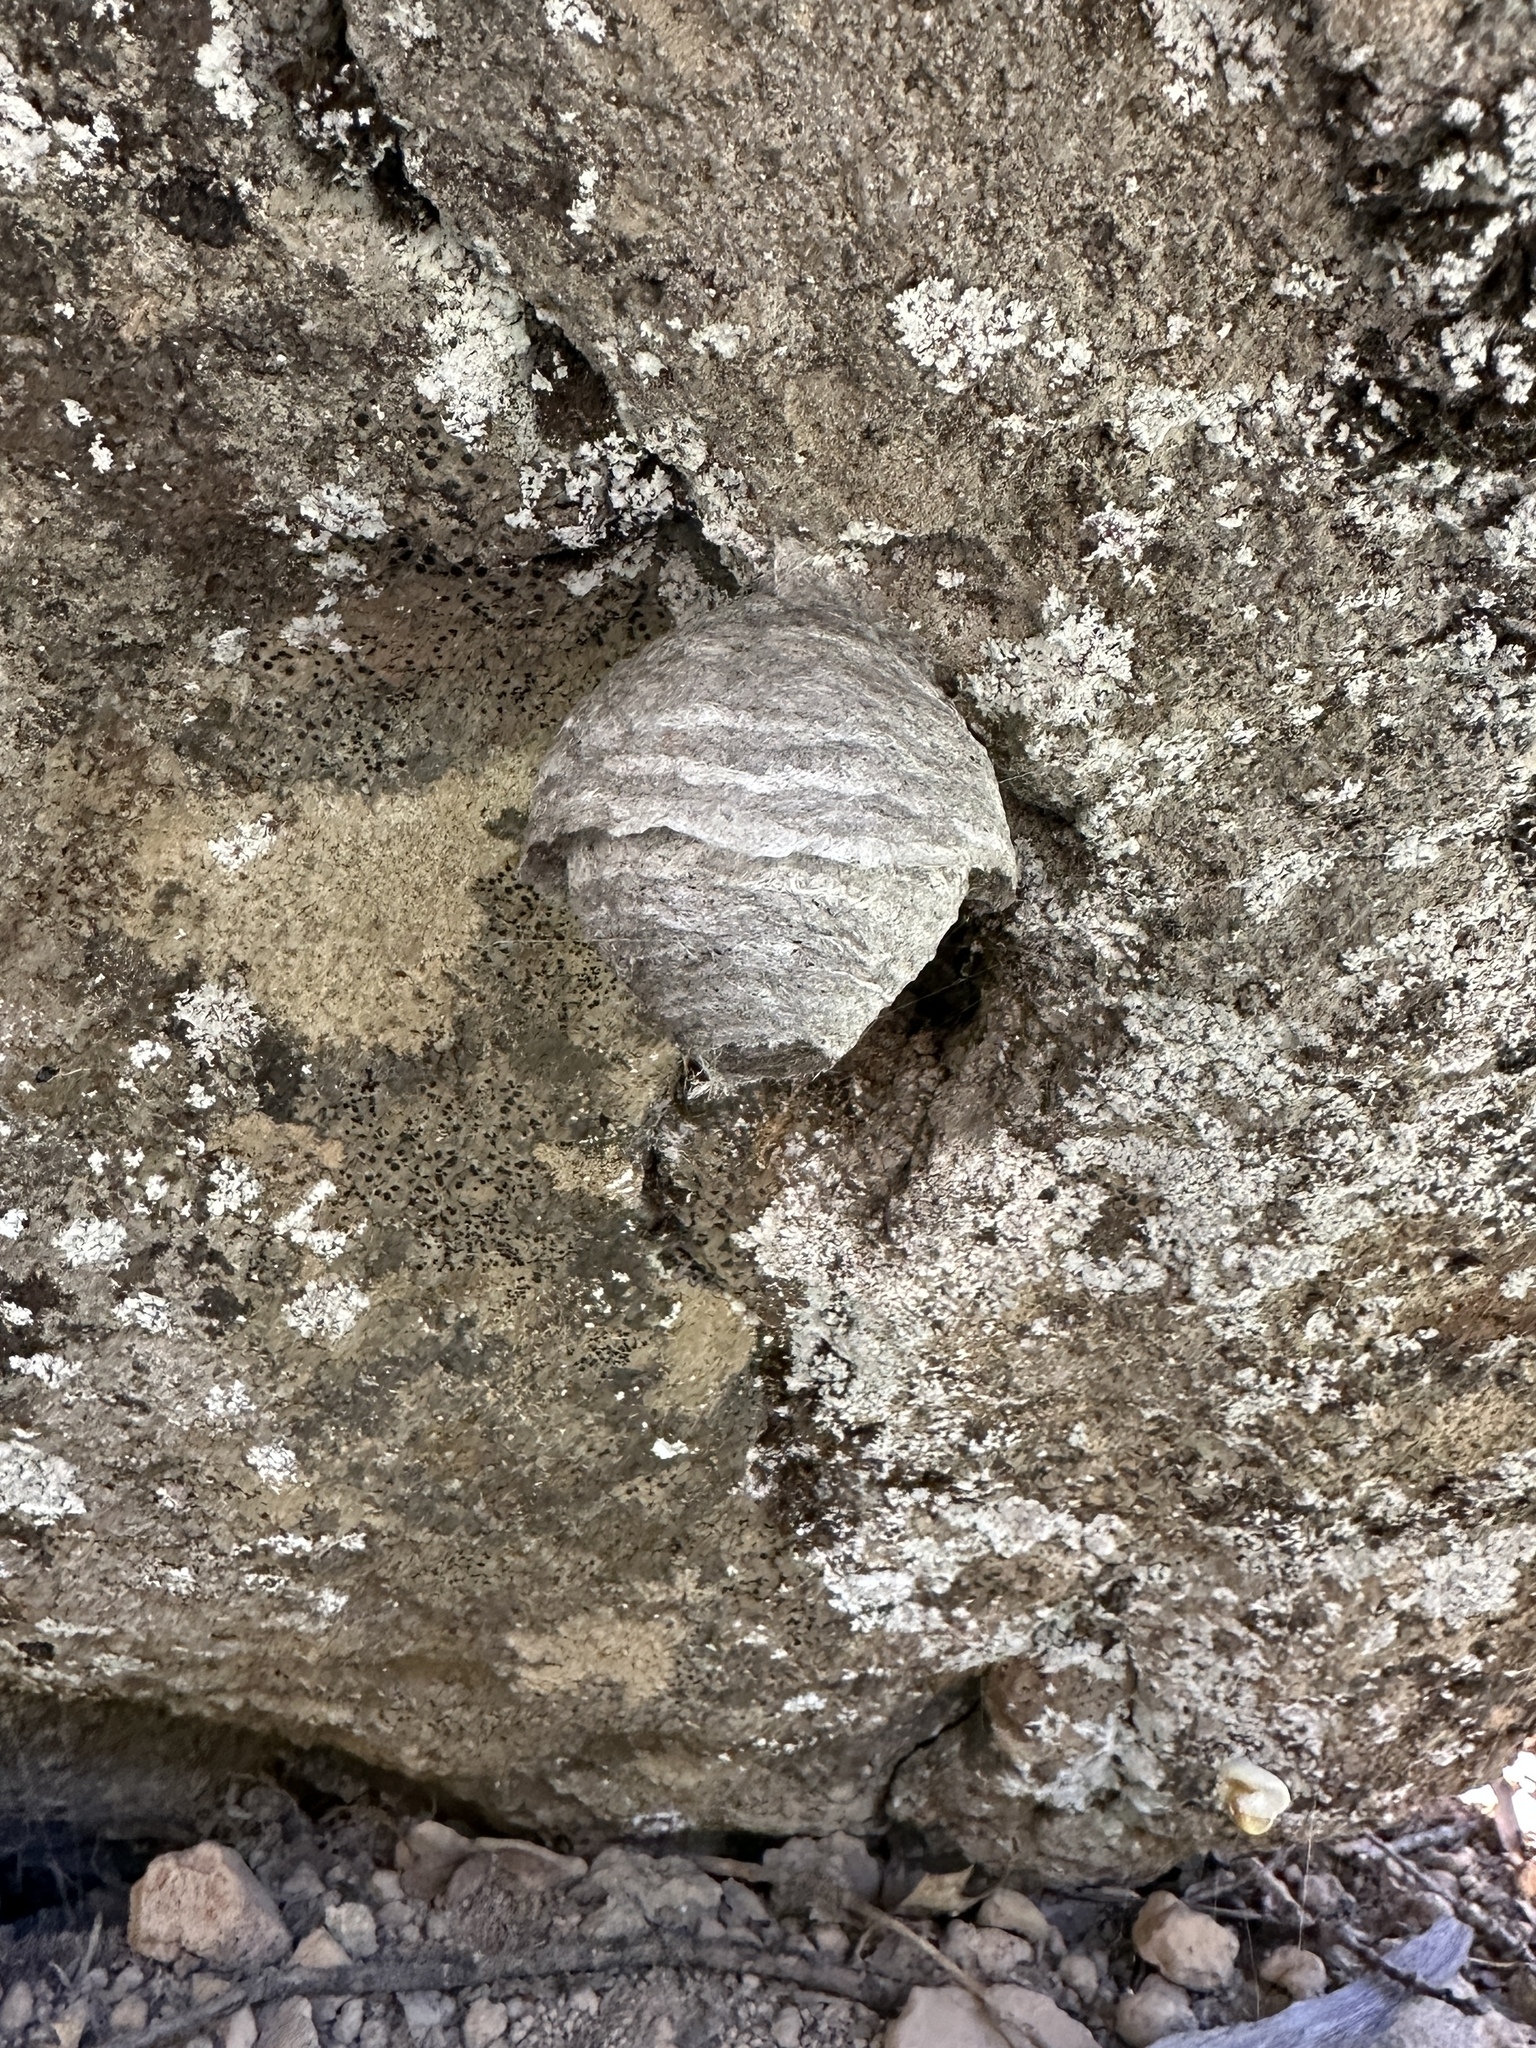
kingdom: Animalia
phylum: Arthropoda
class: Insecta
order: Hymenoptera
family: Vespidae
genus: Dolichovespula
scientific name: Dolichovespula
